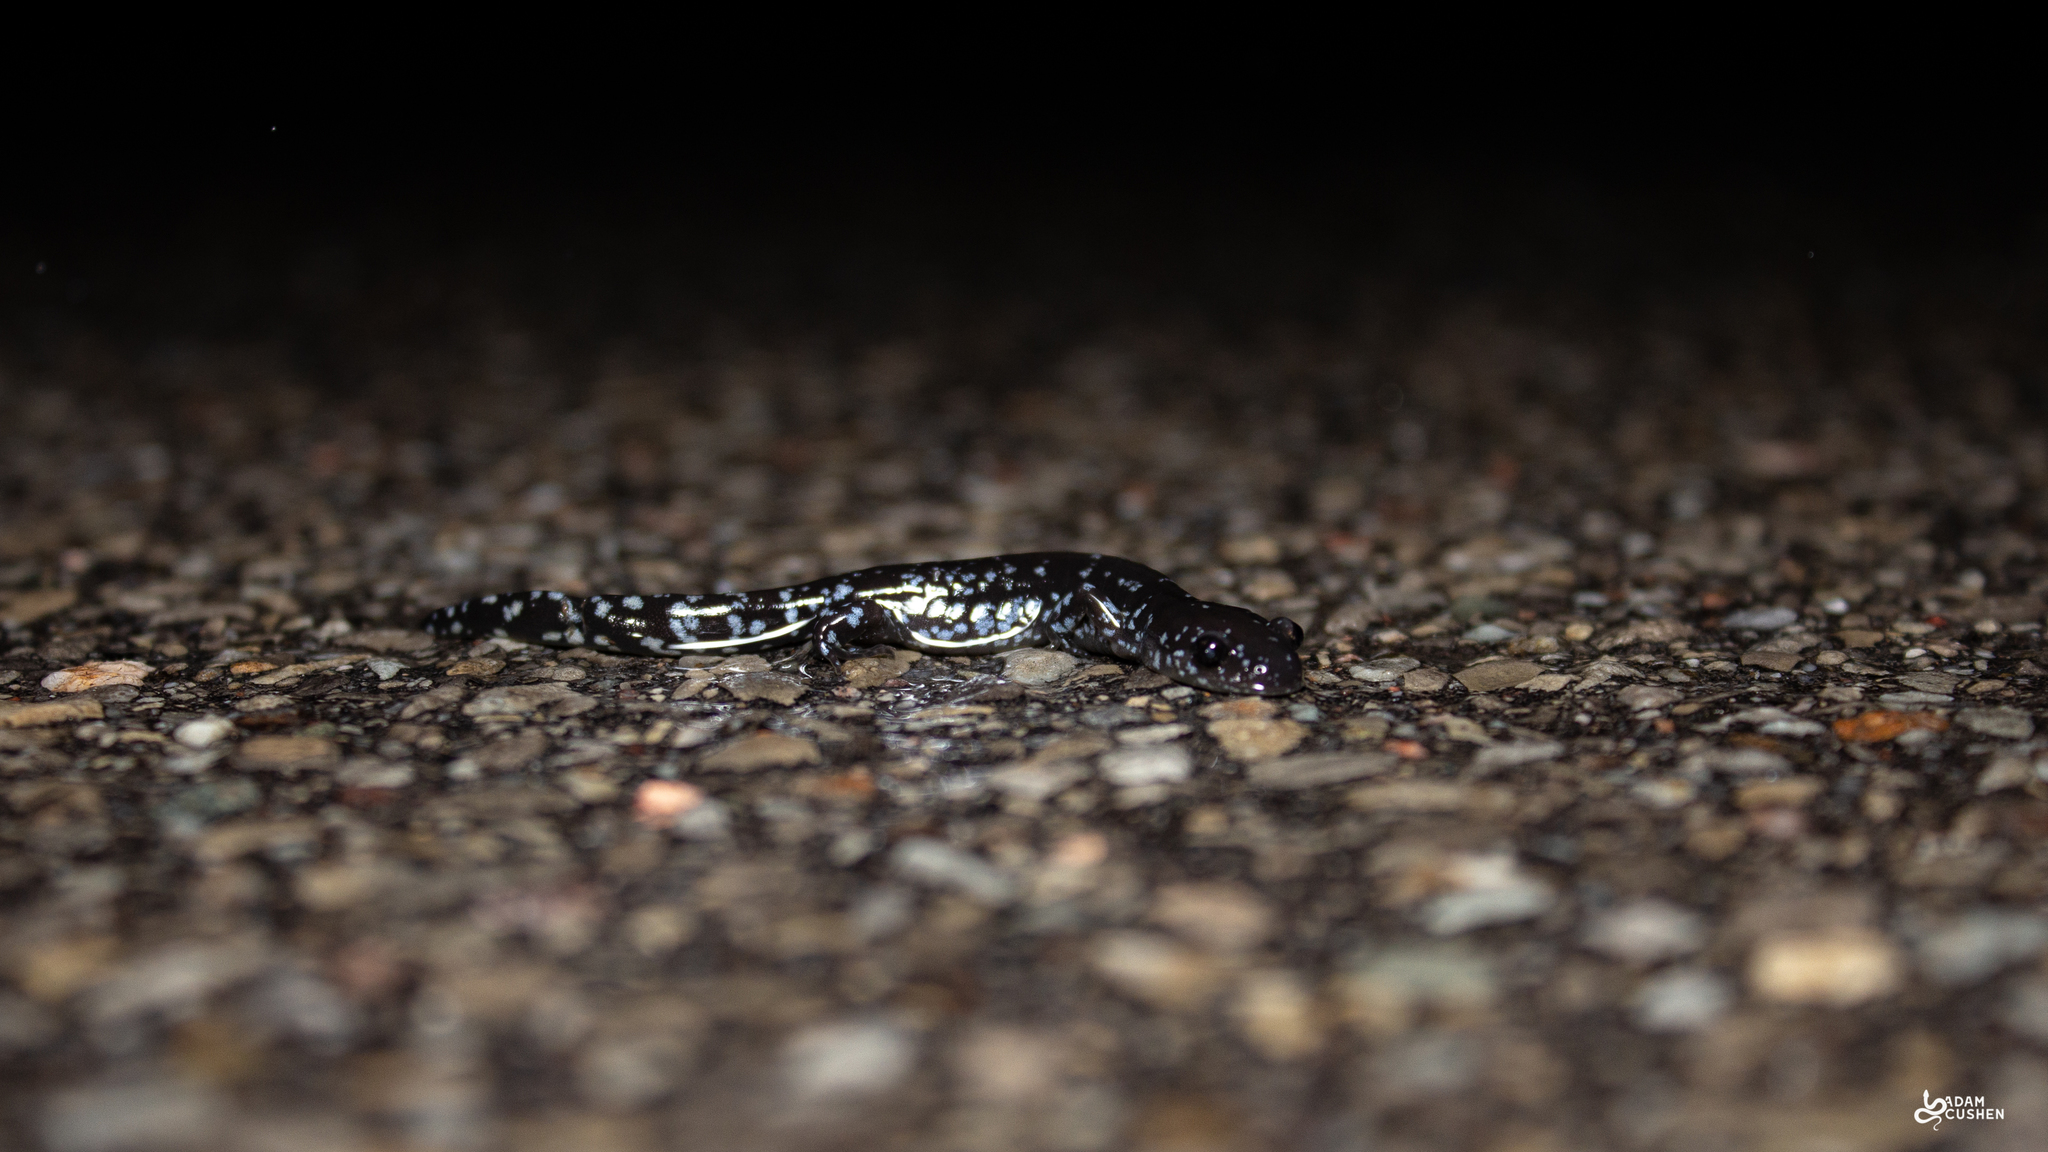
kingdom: Animalia
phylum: Chordata
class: Amphibia
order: Caudata
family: Ambystomatidae
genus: Ambystoma
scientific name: Ambystoma laterale
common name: Blue-spotted salamander
